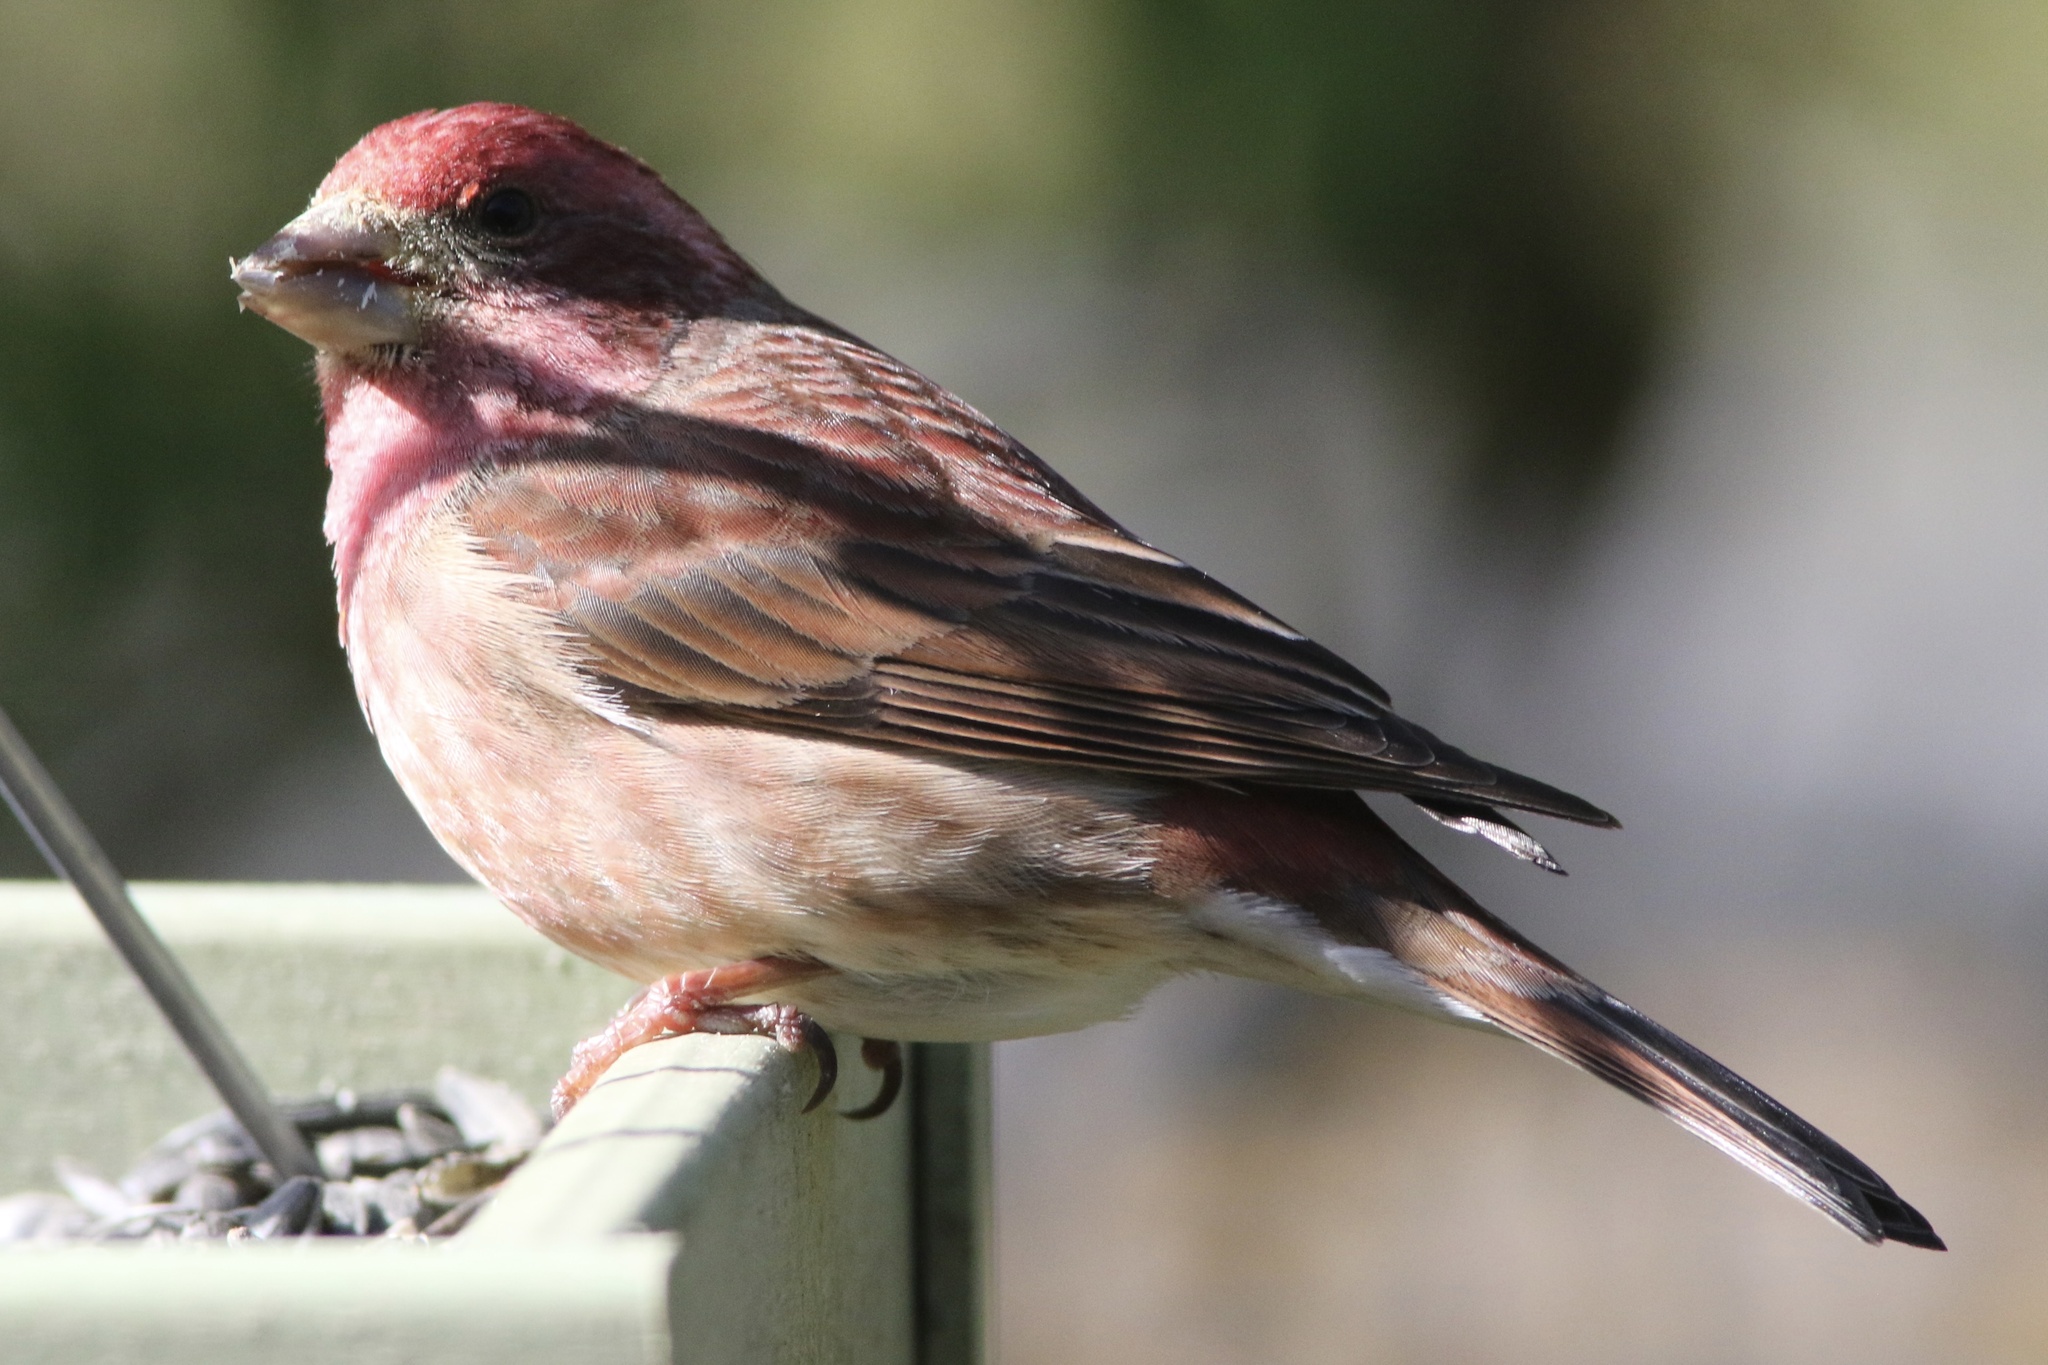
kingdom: Animalia
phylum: Chordata
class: Aves
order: Passeriformes
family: Fringillidae
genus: Haemorhous
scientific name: Haemorhous purpureus
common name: Purple finch
